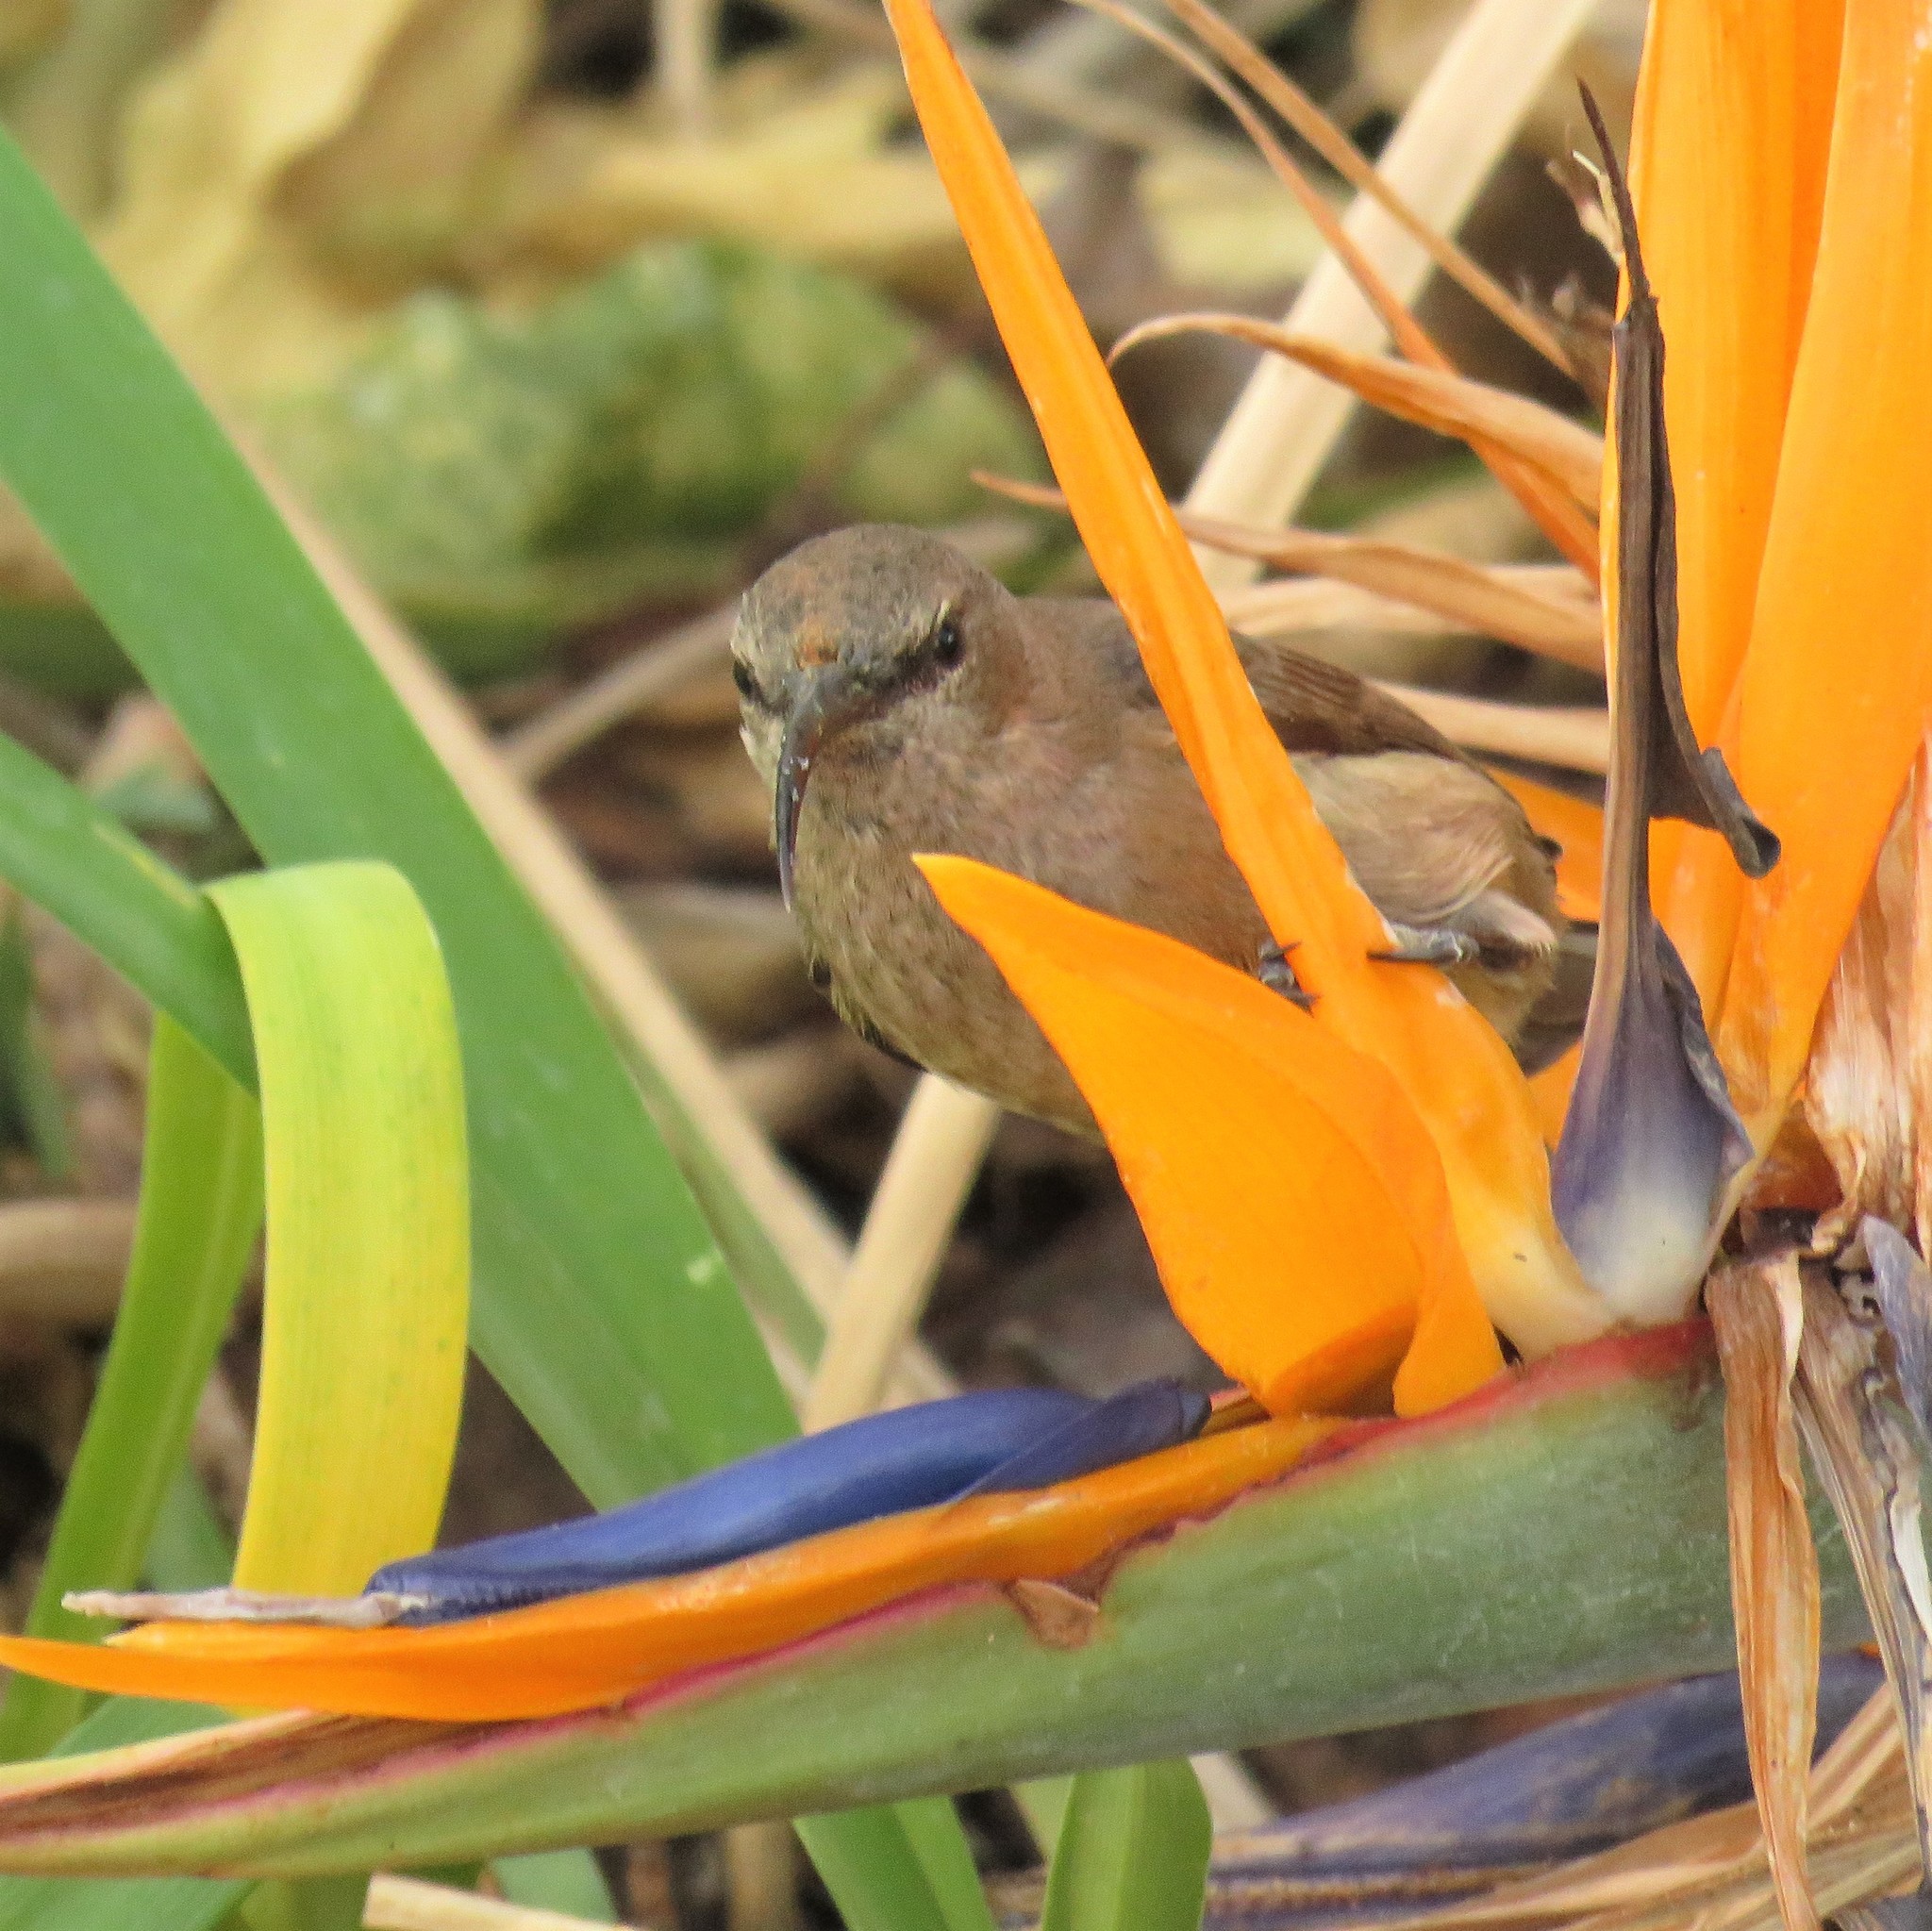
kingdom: Animalia
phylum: Chordata
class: Aves
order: Passeriformes
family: Nectariniidae
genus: Cinnyris
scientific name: Cinnyris afer
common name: Greater double-collared sunbird
